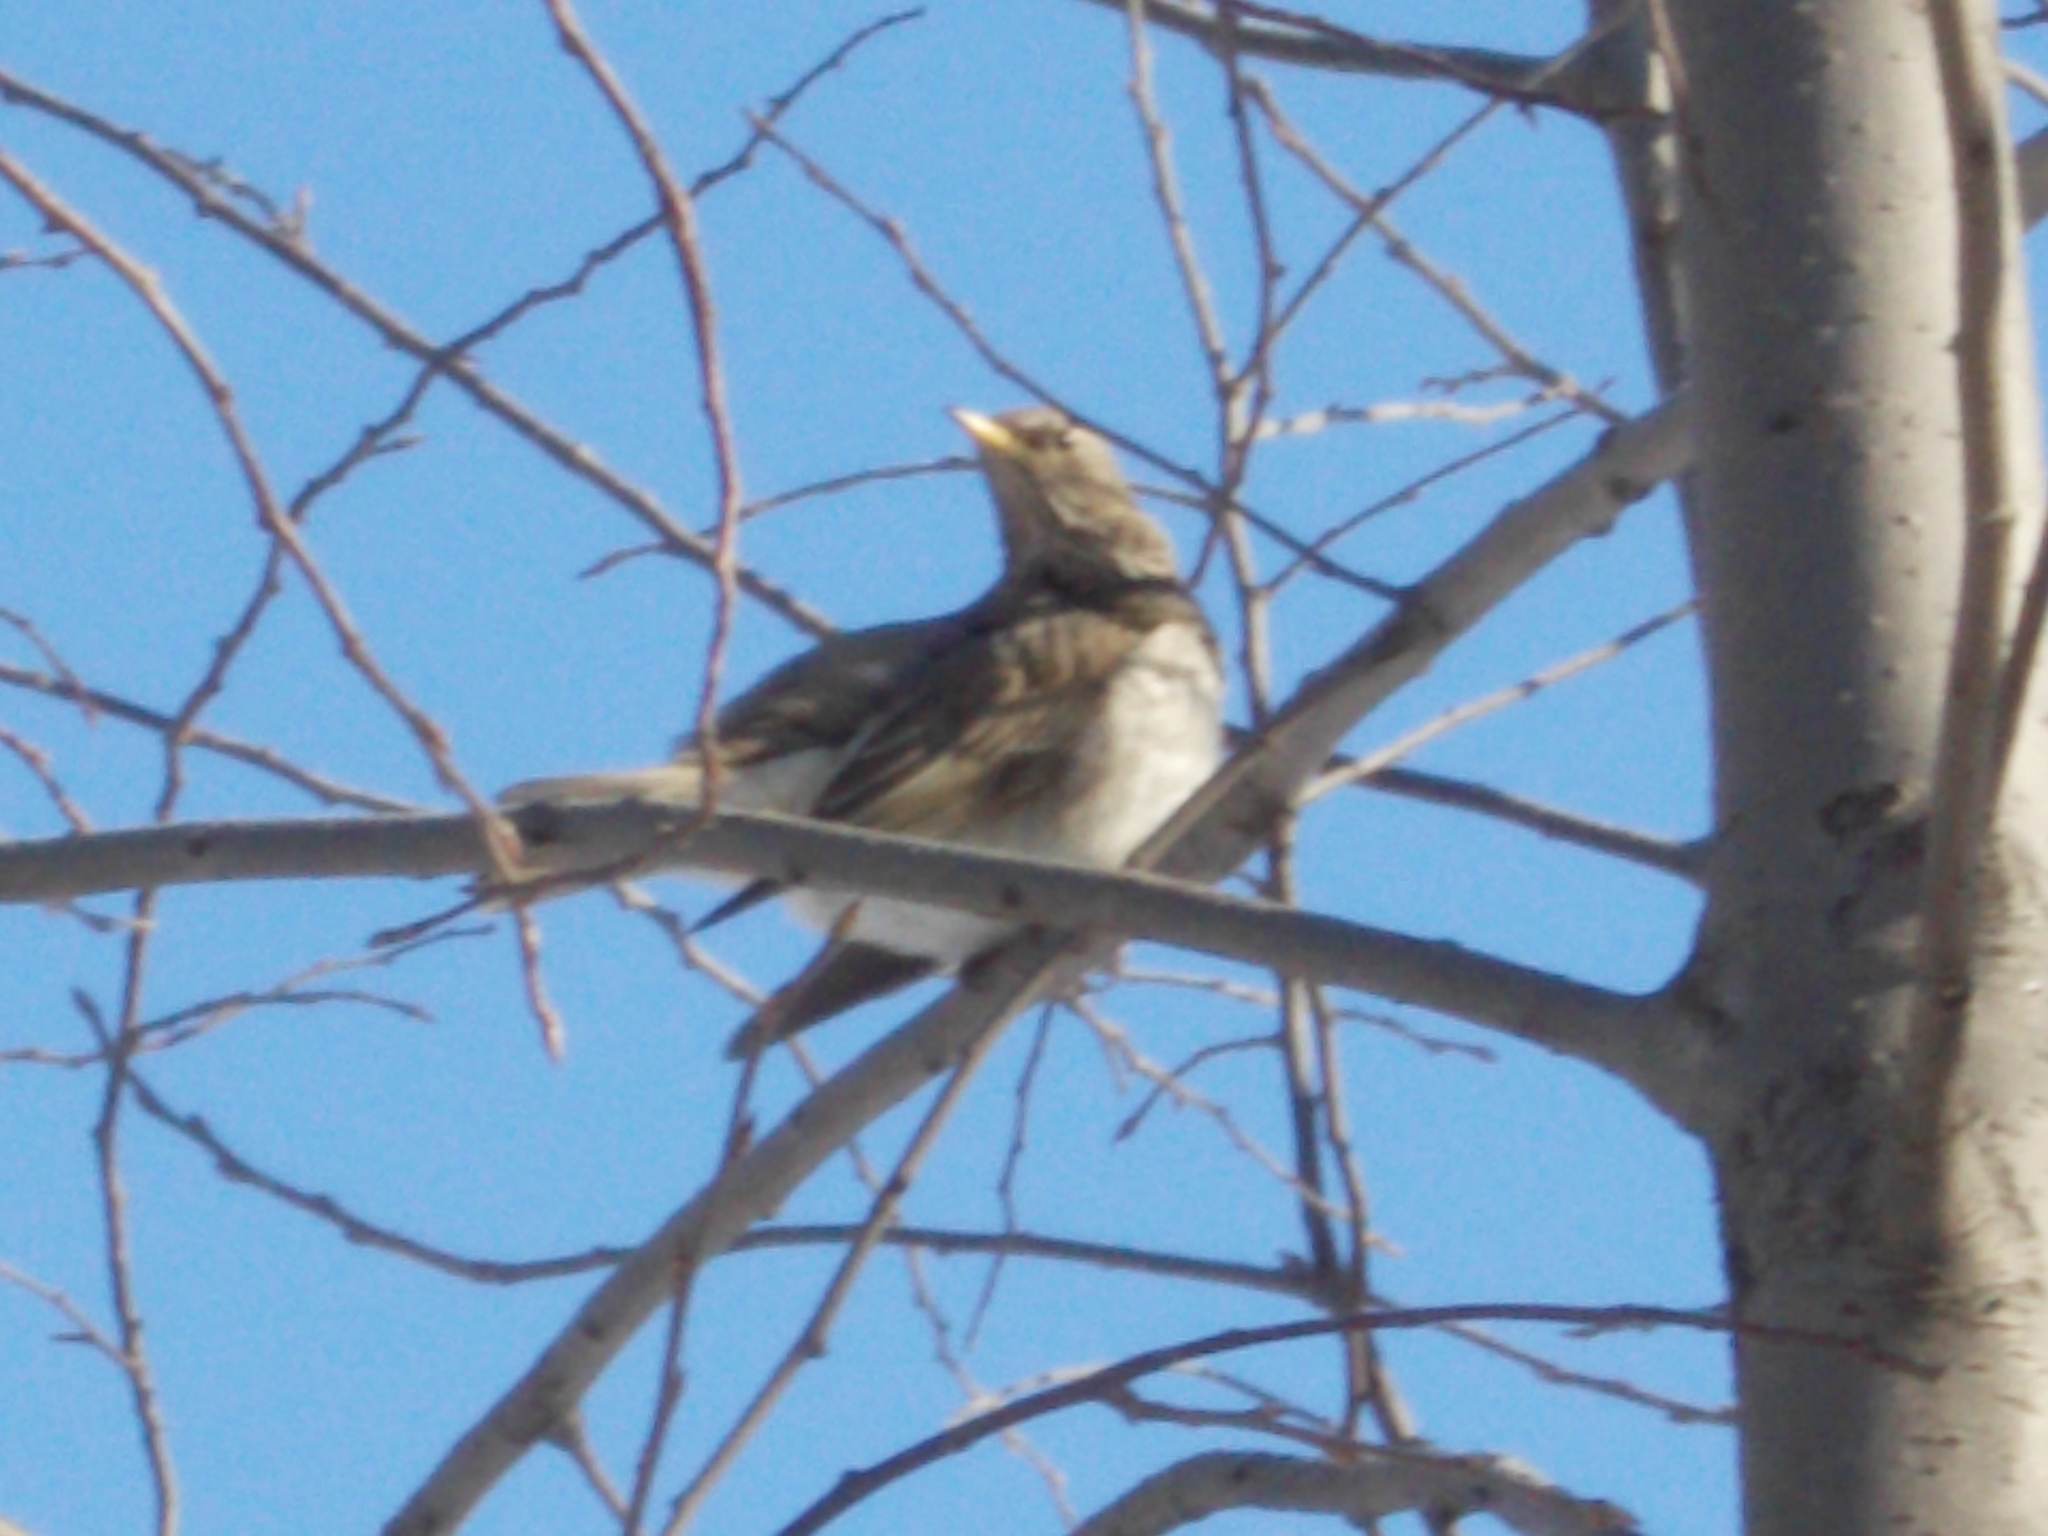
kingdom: Animalia
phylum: Chordata
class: Aves
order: Passeriformes
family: Turdidae
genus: Turdus
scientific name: Turdus atrogularis
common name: Black-throated thrush
